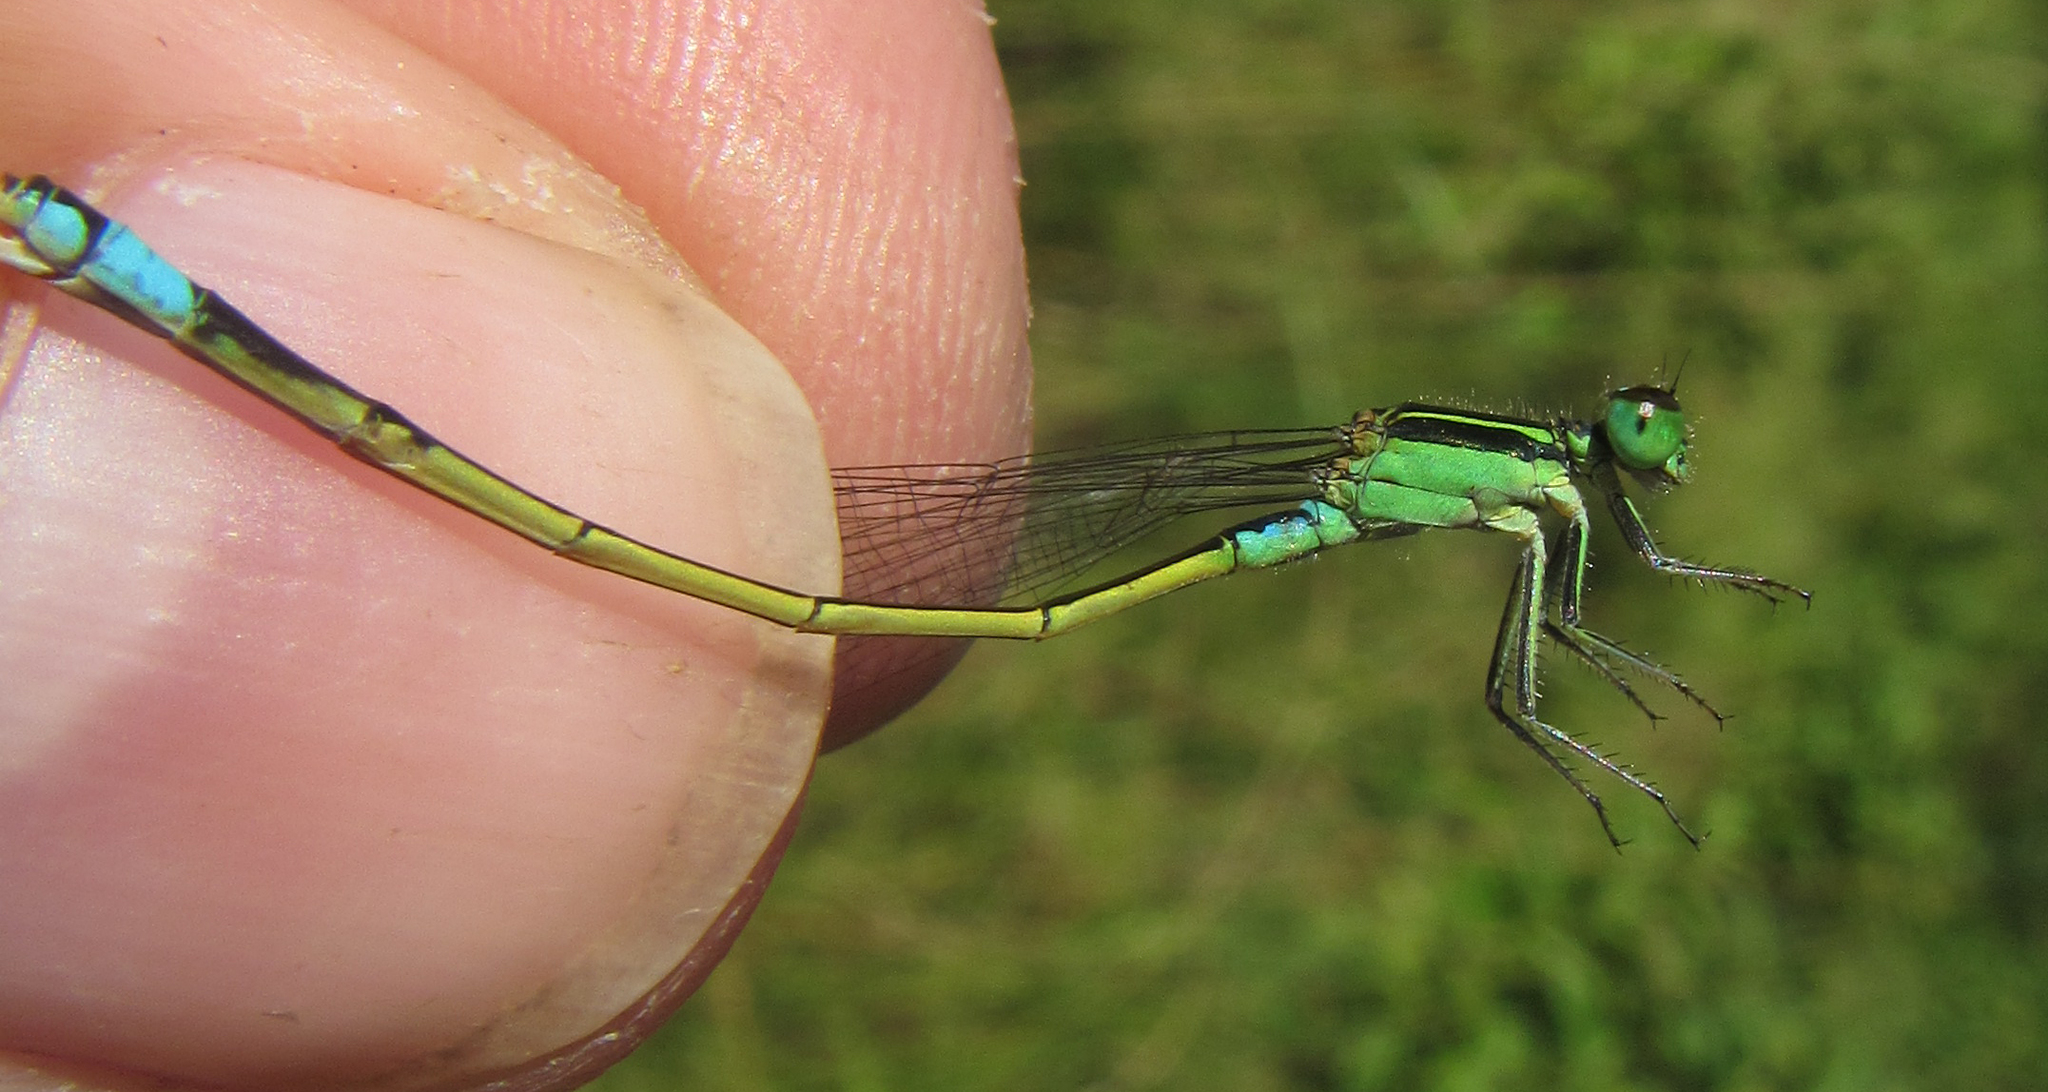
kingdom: Animalia
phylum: Arthropoda
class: Insecta
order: Odonata
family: Coenagrionidae
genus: Ischnura
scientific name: Ischnura senegalensis
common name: Tropical bluetail
